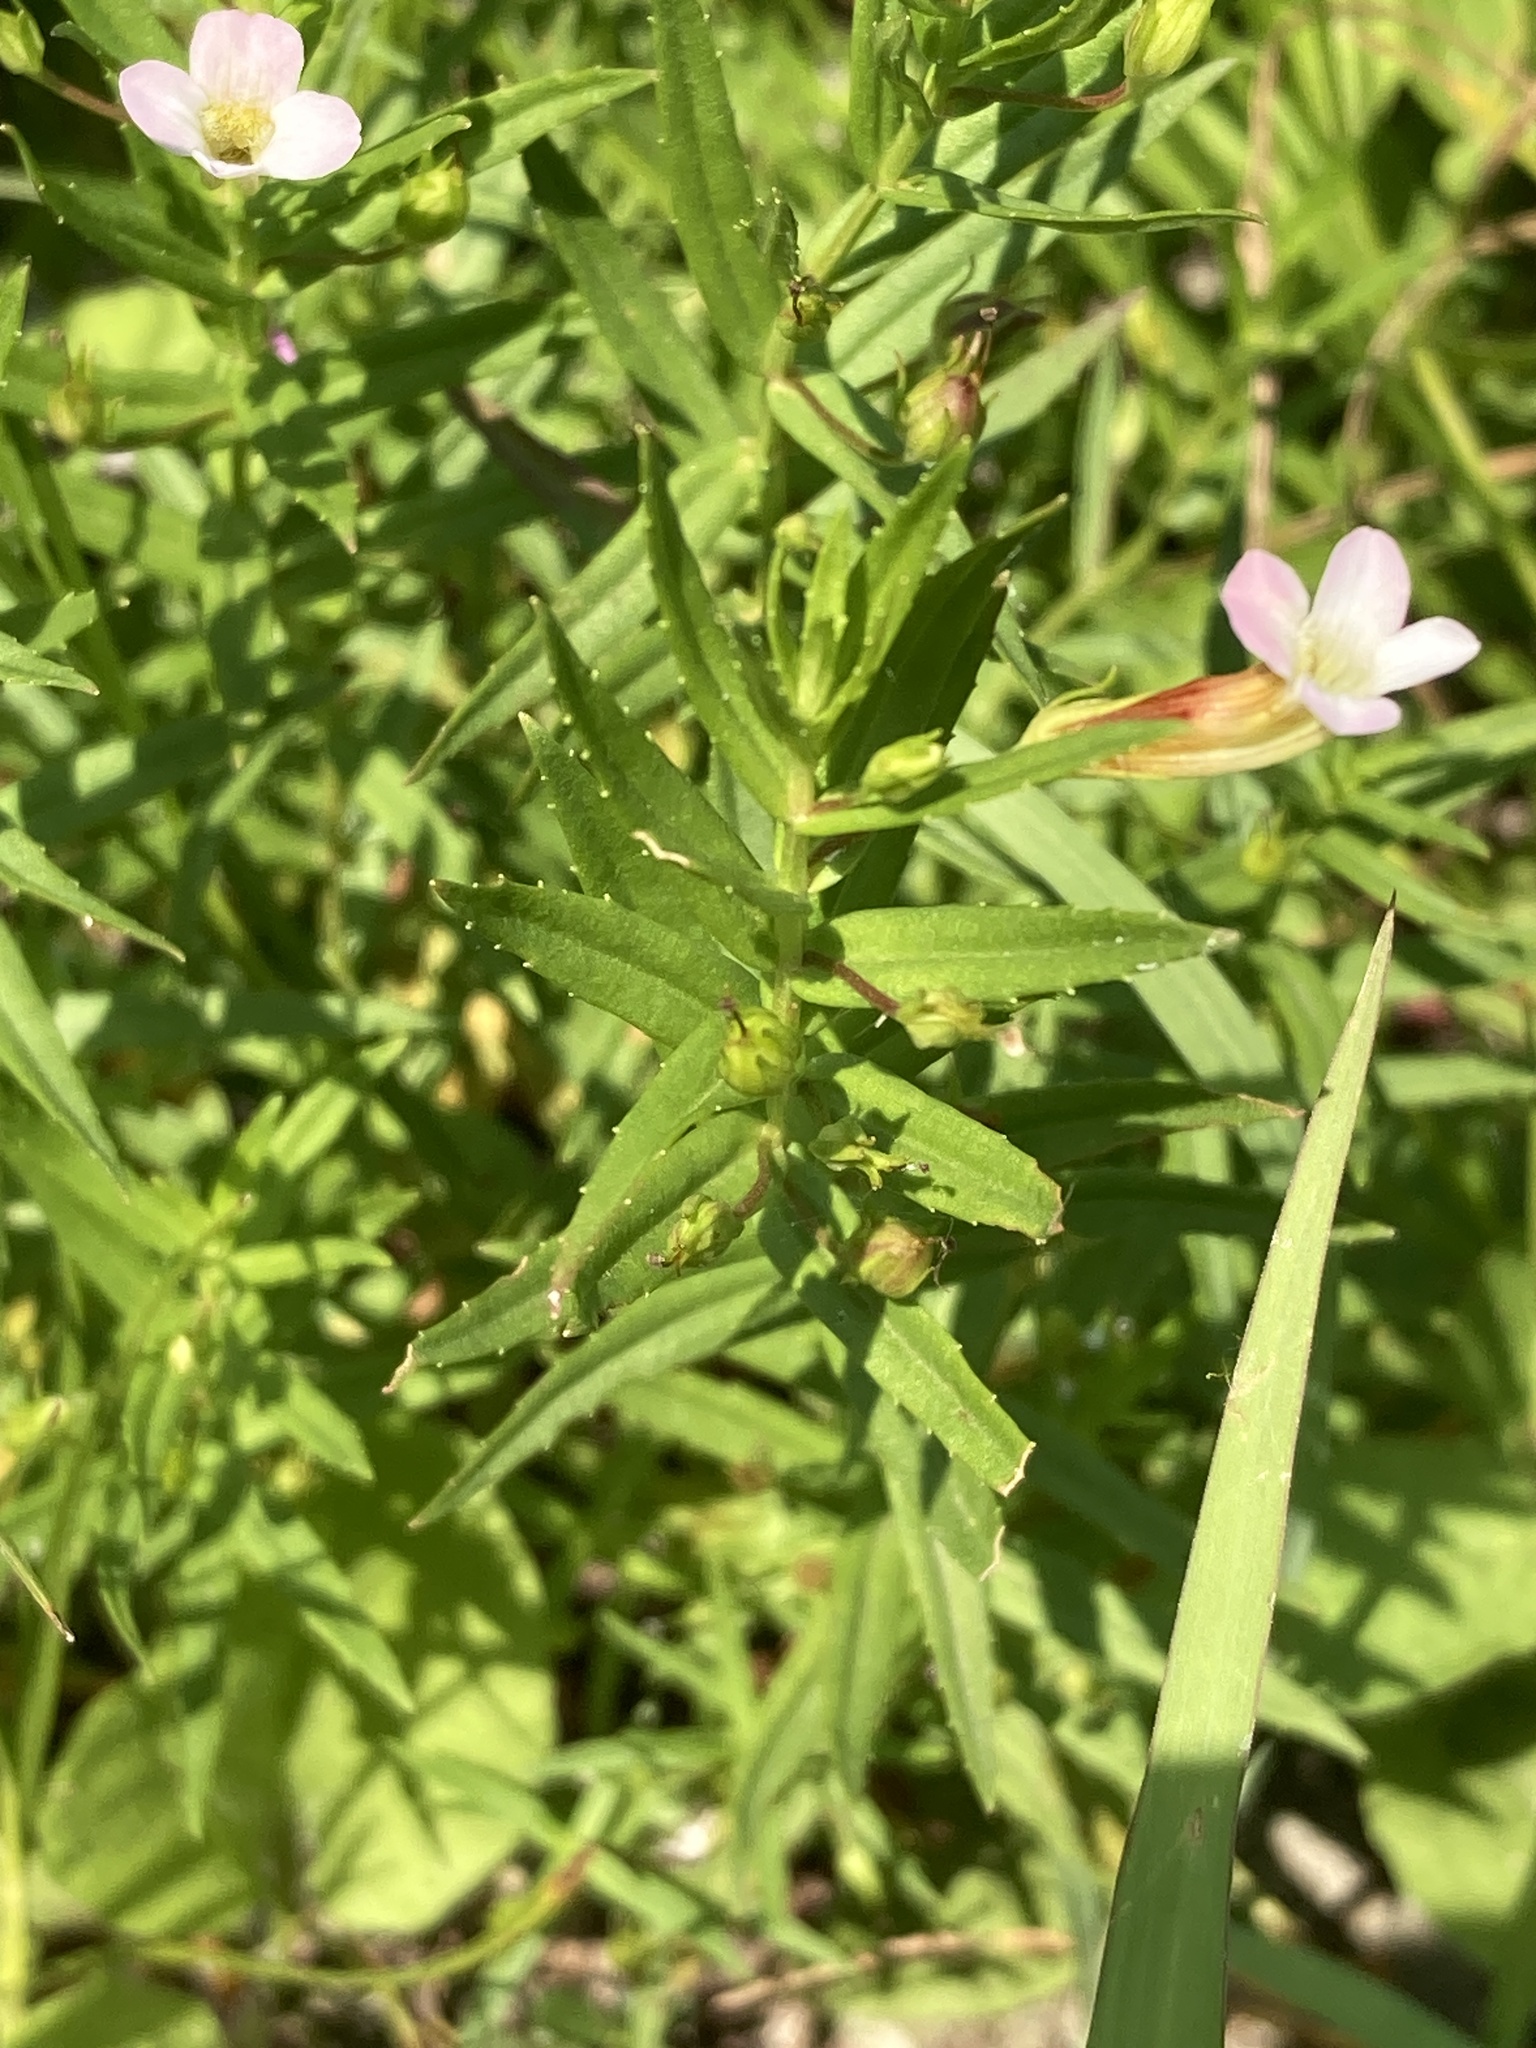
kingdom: Plantae
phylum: Tracheophyta
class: Magnoliopsida
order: Lamiales
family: Plantaginaceae
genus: Gratiola
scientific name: Gratiola officinalis
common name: Gratiola
